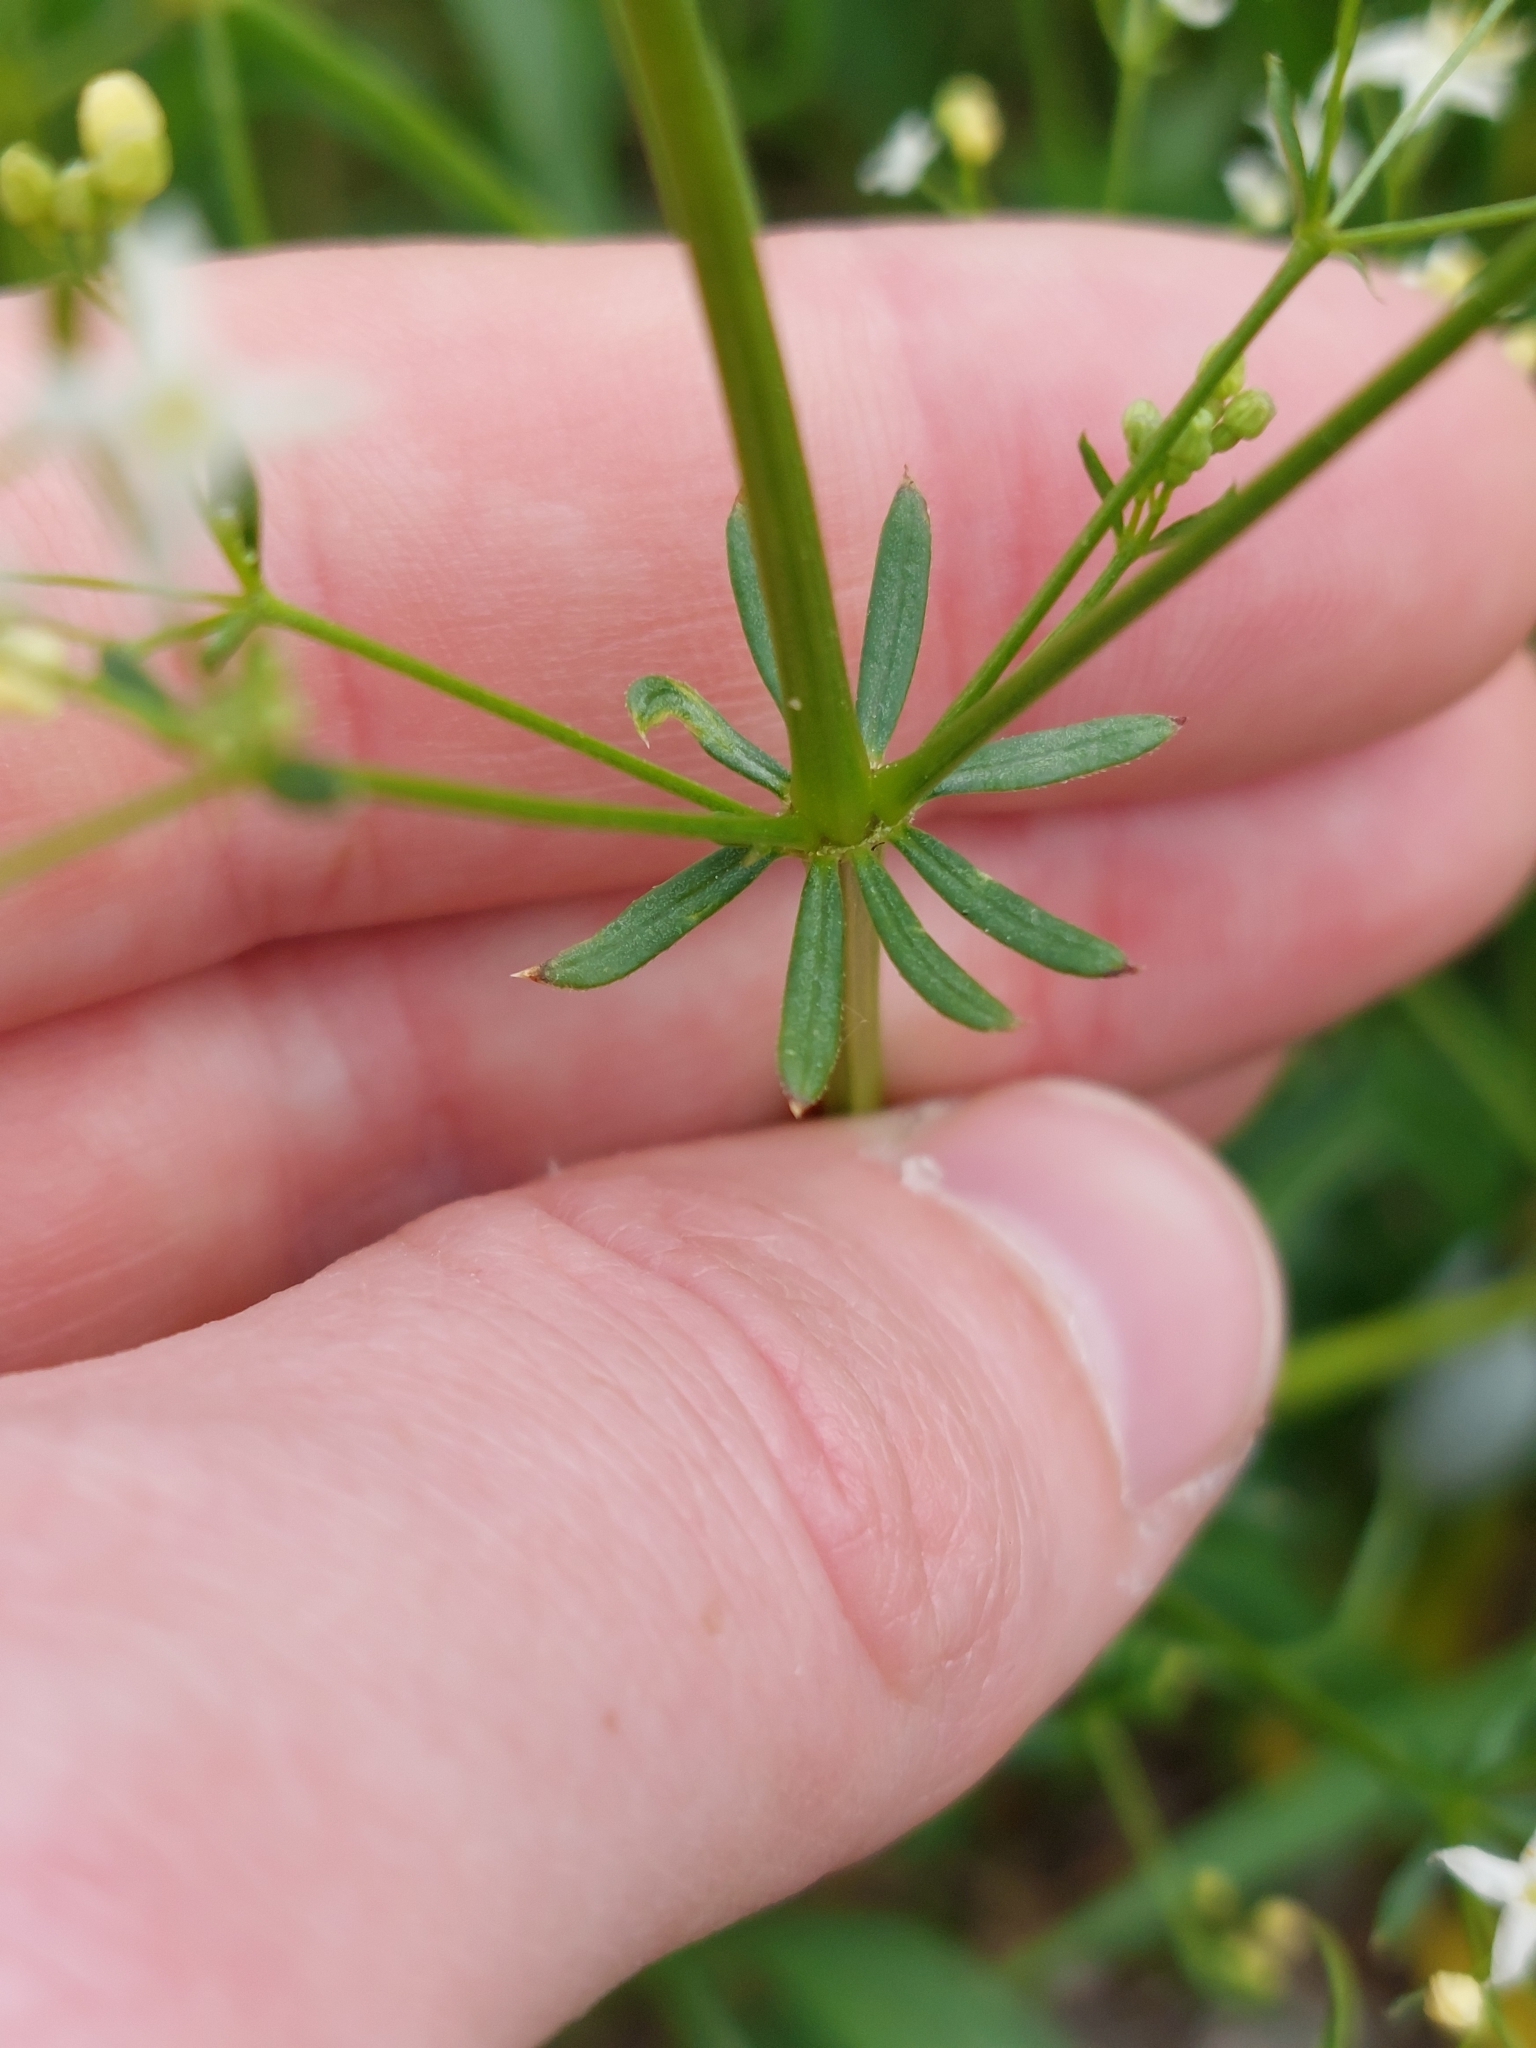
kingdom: Plantae
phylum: Tracheophyta
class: Magnoliopsida
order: Gentianales
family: Rubiaceae
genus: Galium
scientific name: Galium album
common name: White bedstraw
